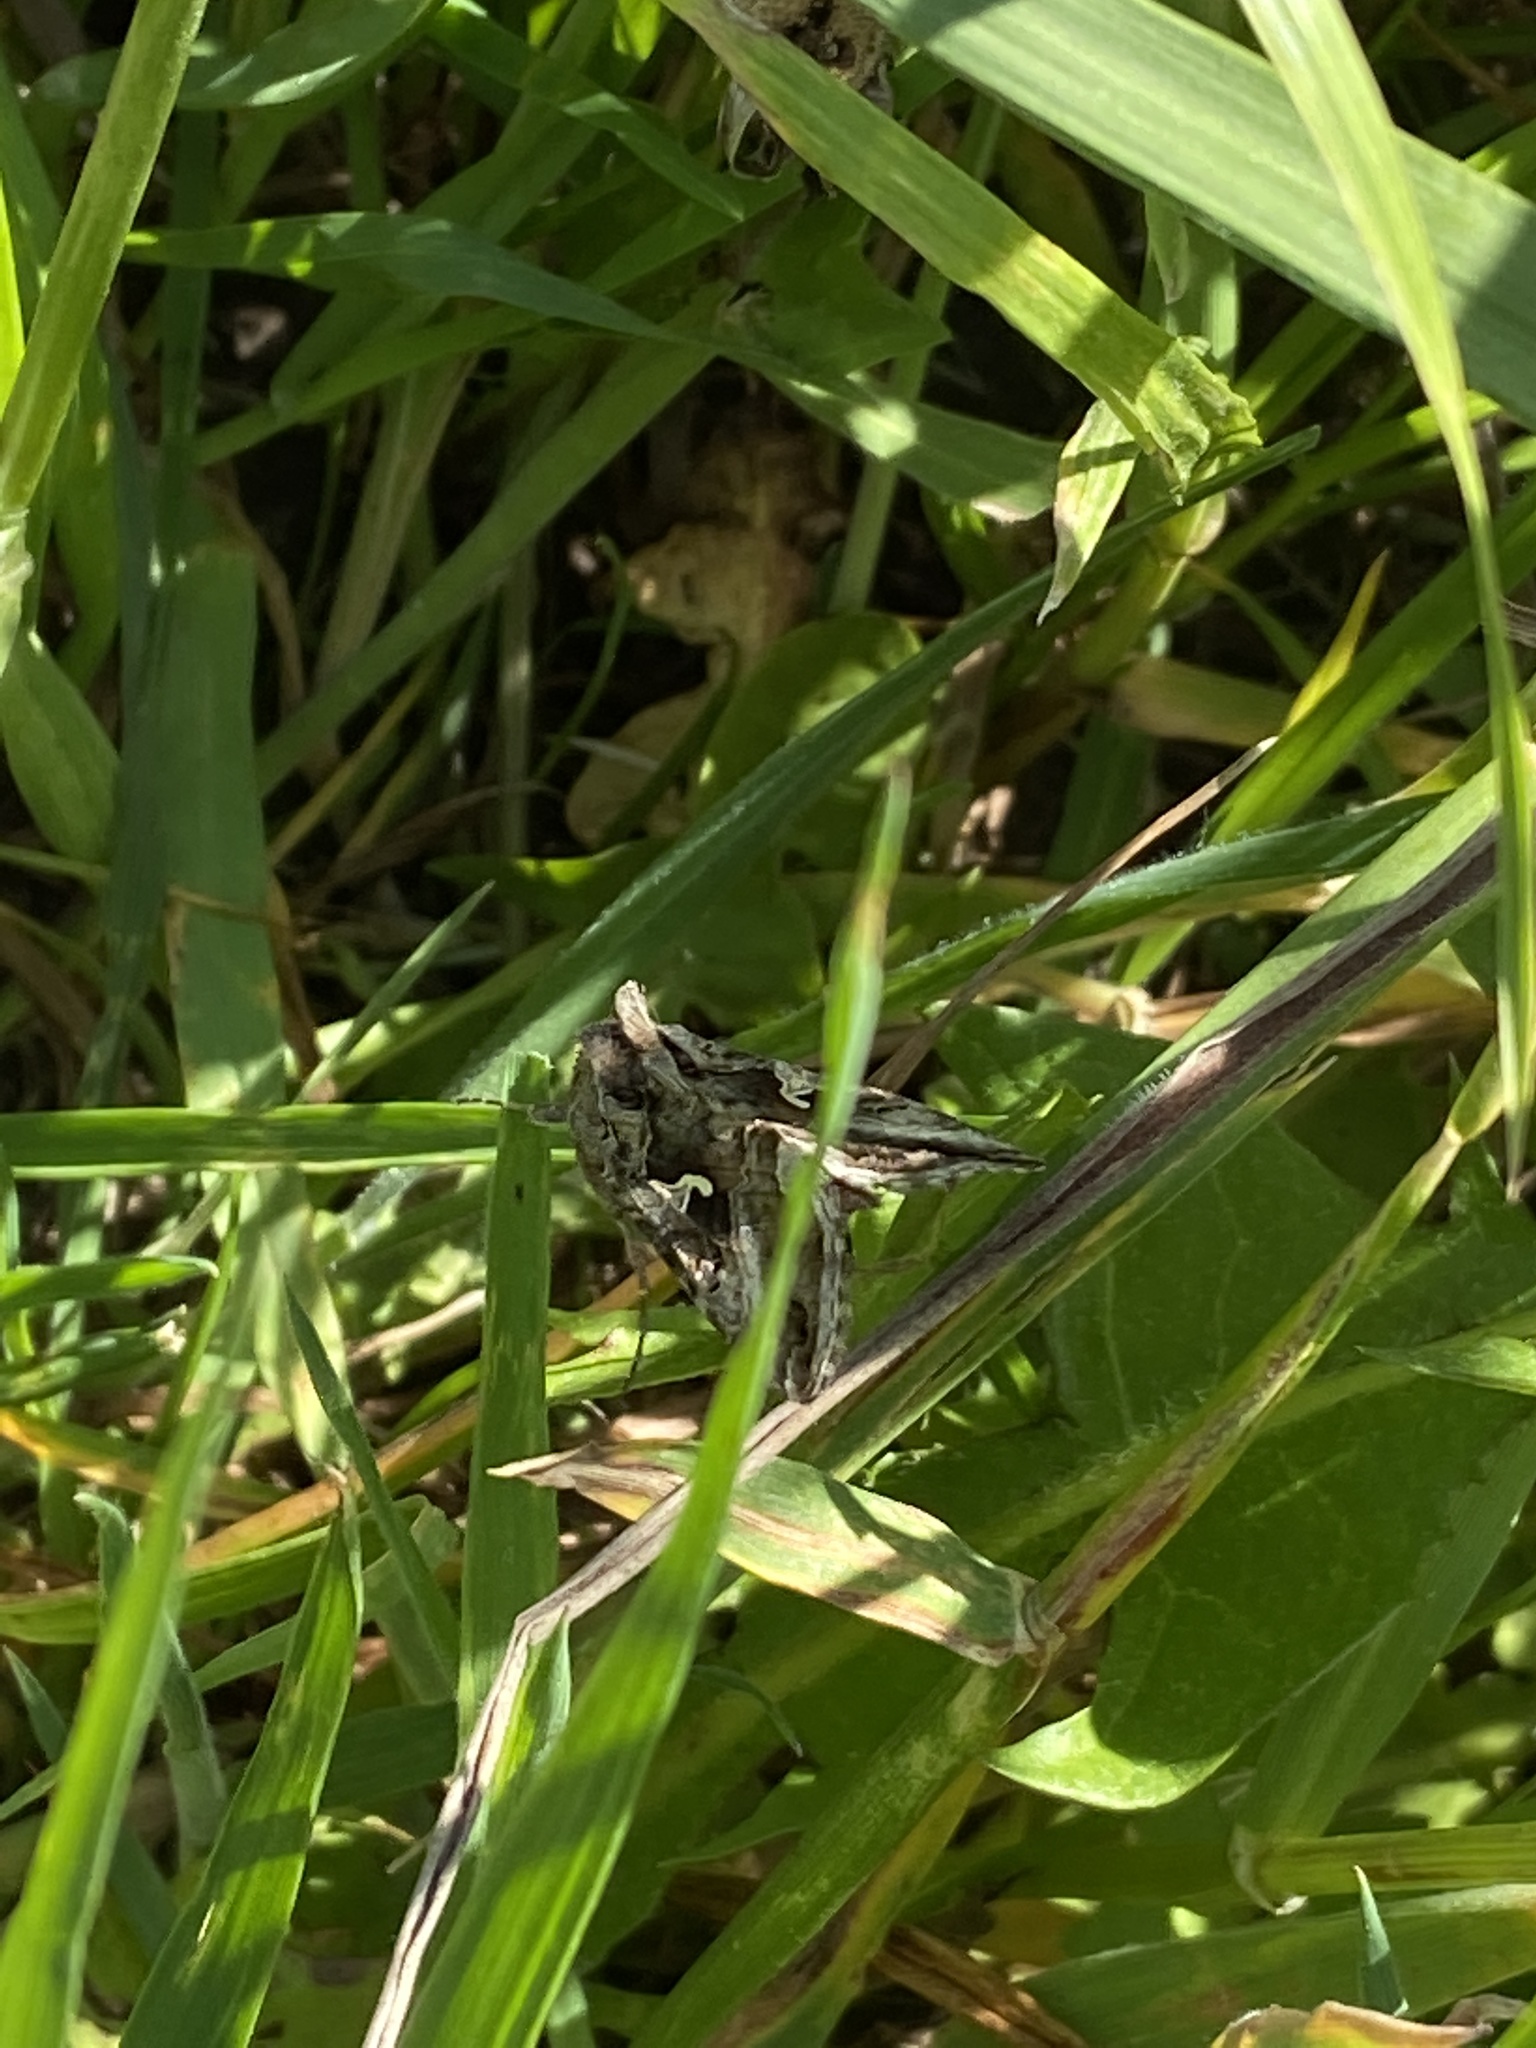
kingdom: Animalia
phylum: Arthropoda
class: Insecta
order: Lepidoptera
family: Noctuidae
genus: Autographa
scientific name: Autographa gamma
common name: Silver y
